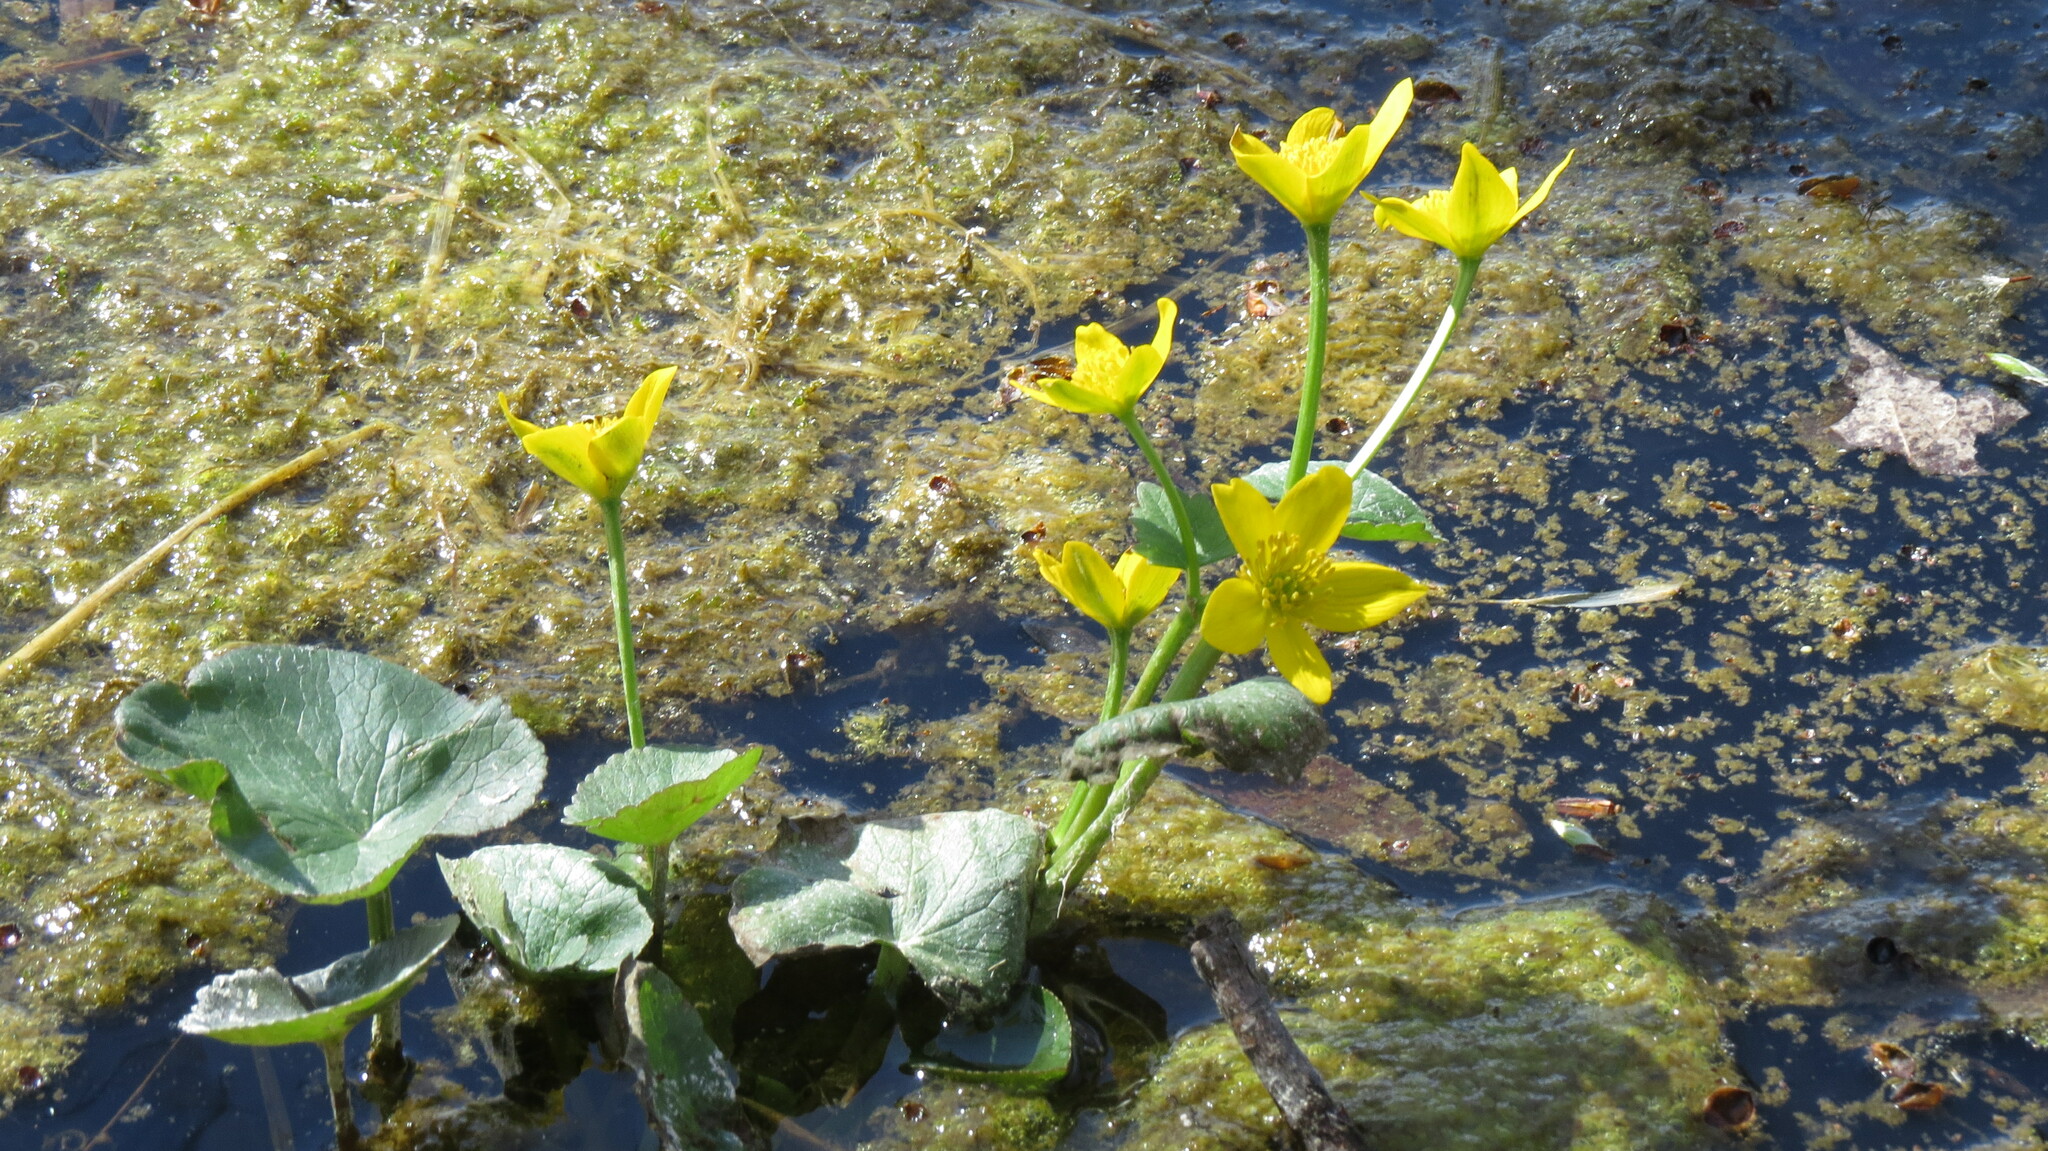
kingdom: Plantae
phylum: Tracheophyta
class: Magnoliopsida
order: Ranunculales
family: Ranunculaceae
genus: Caltha
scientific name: Caltha palustris
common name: Marsh marigold
